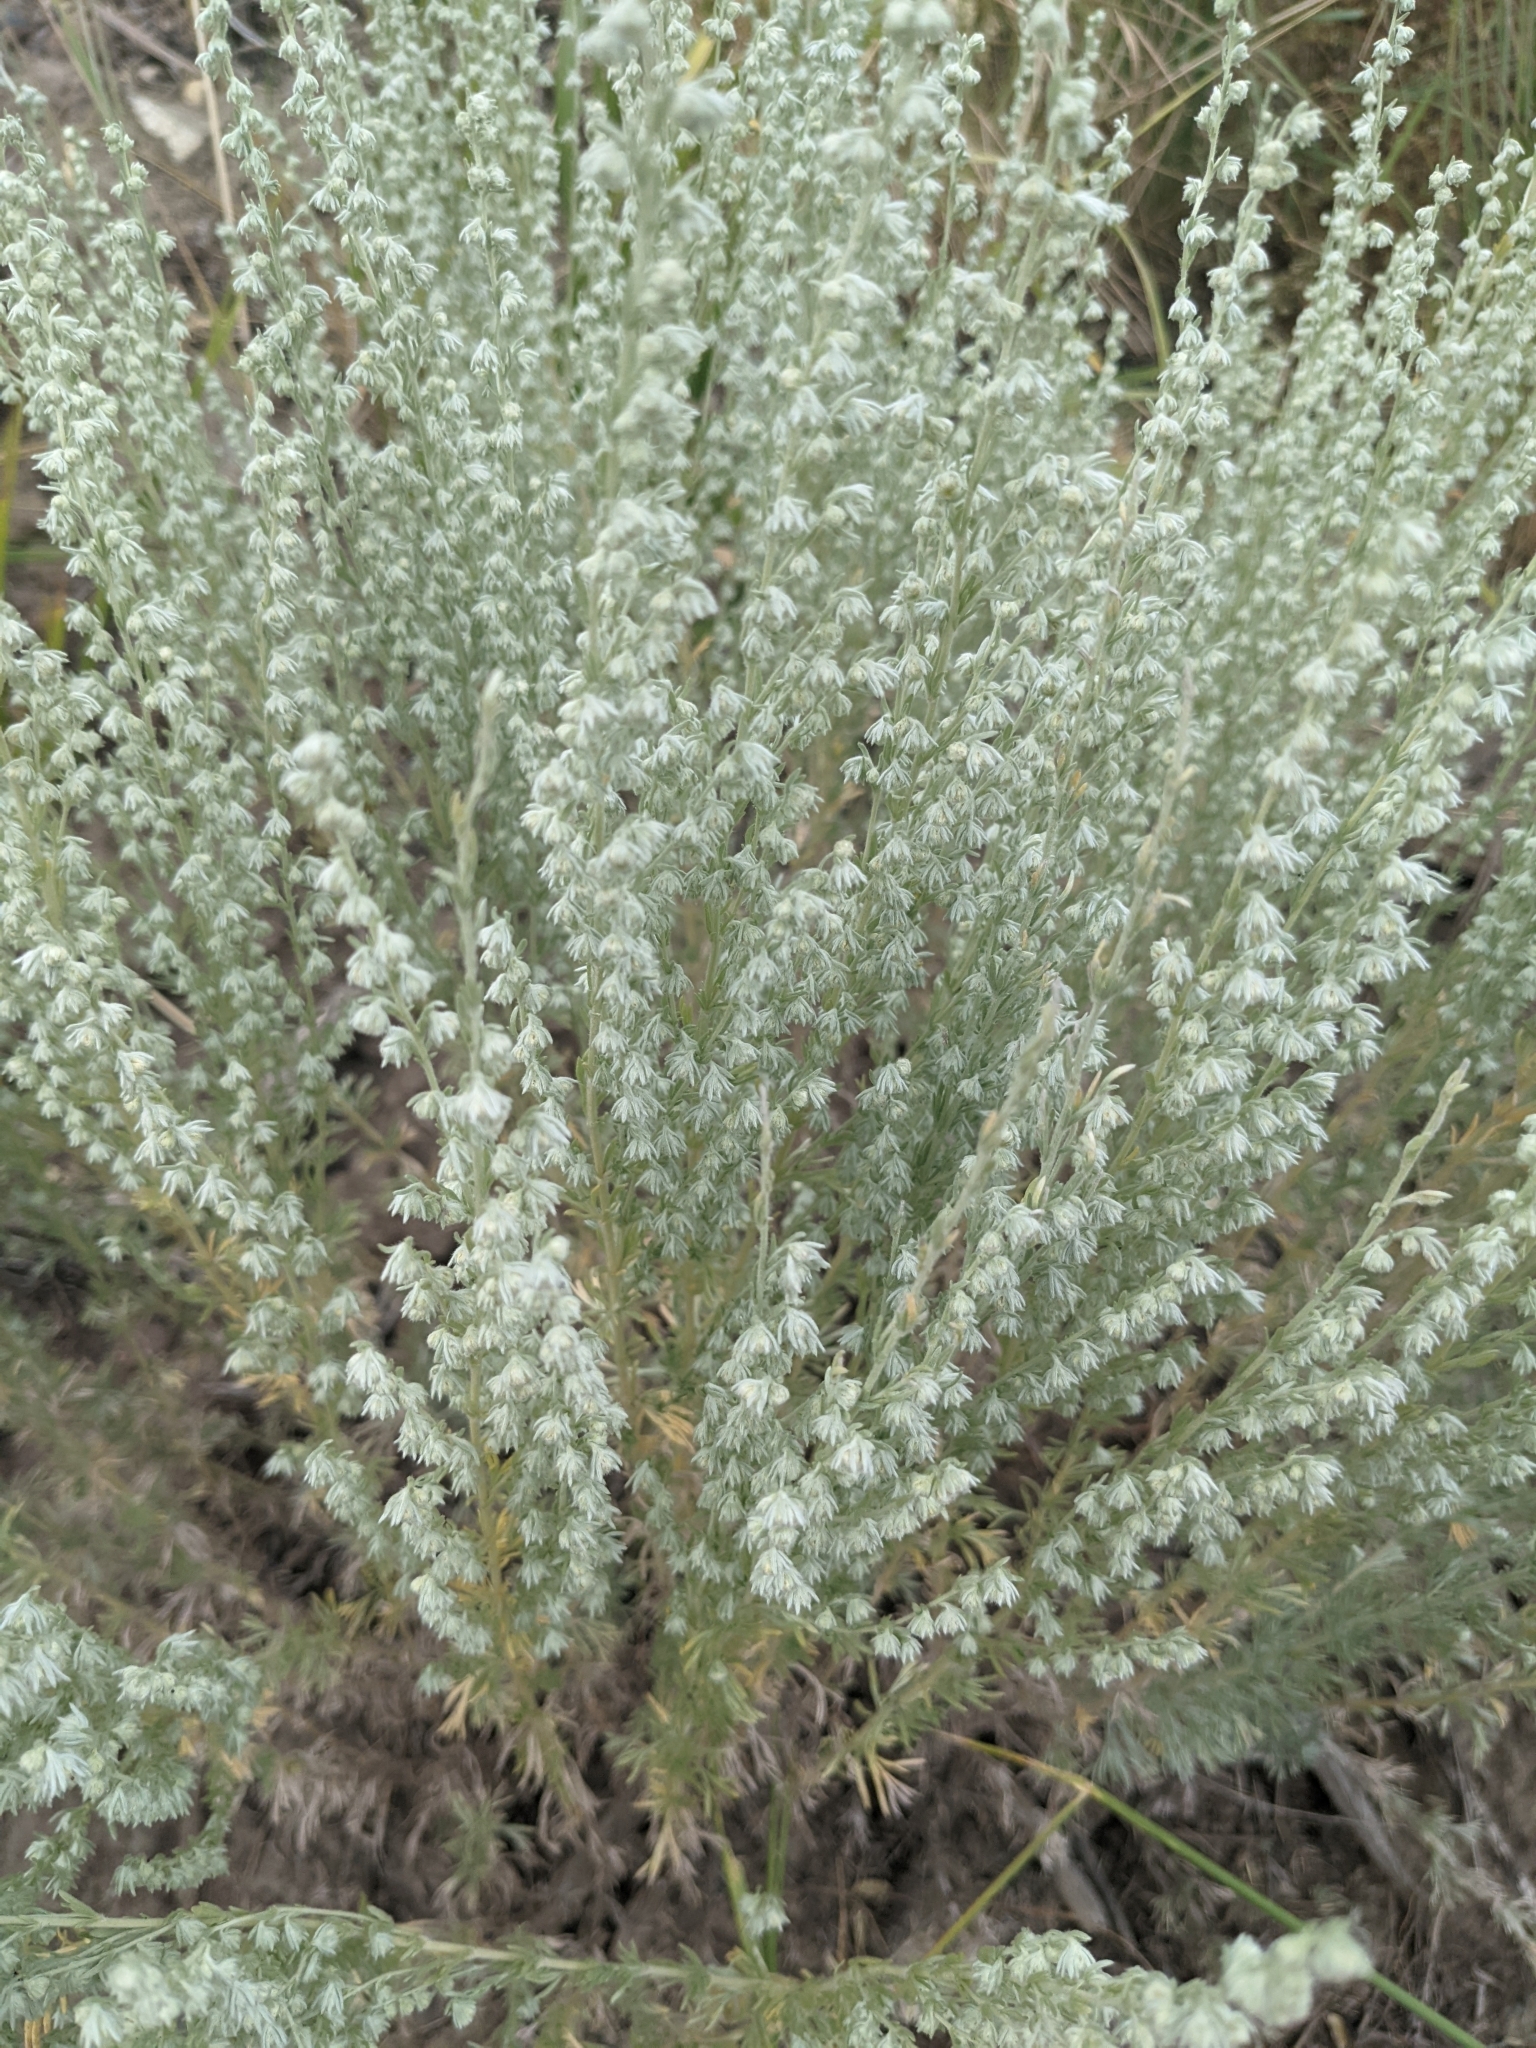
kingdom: Plantae
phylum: Tracheophyta
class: Magnoliopsida
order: Asterales
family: Asteraceae
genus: Artemisia
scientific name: Artemisia frigida
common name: Prairie sagewort
